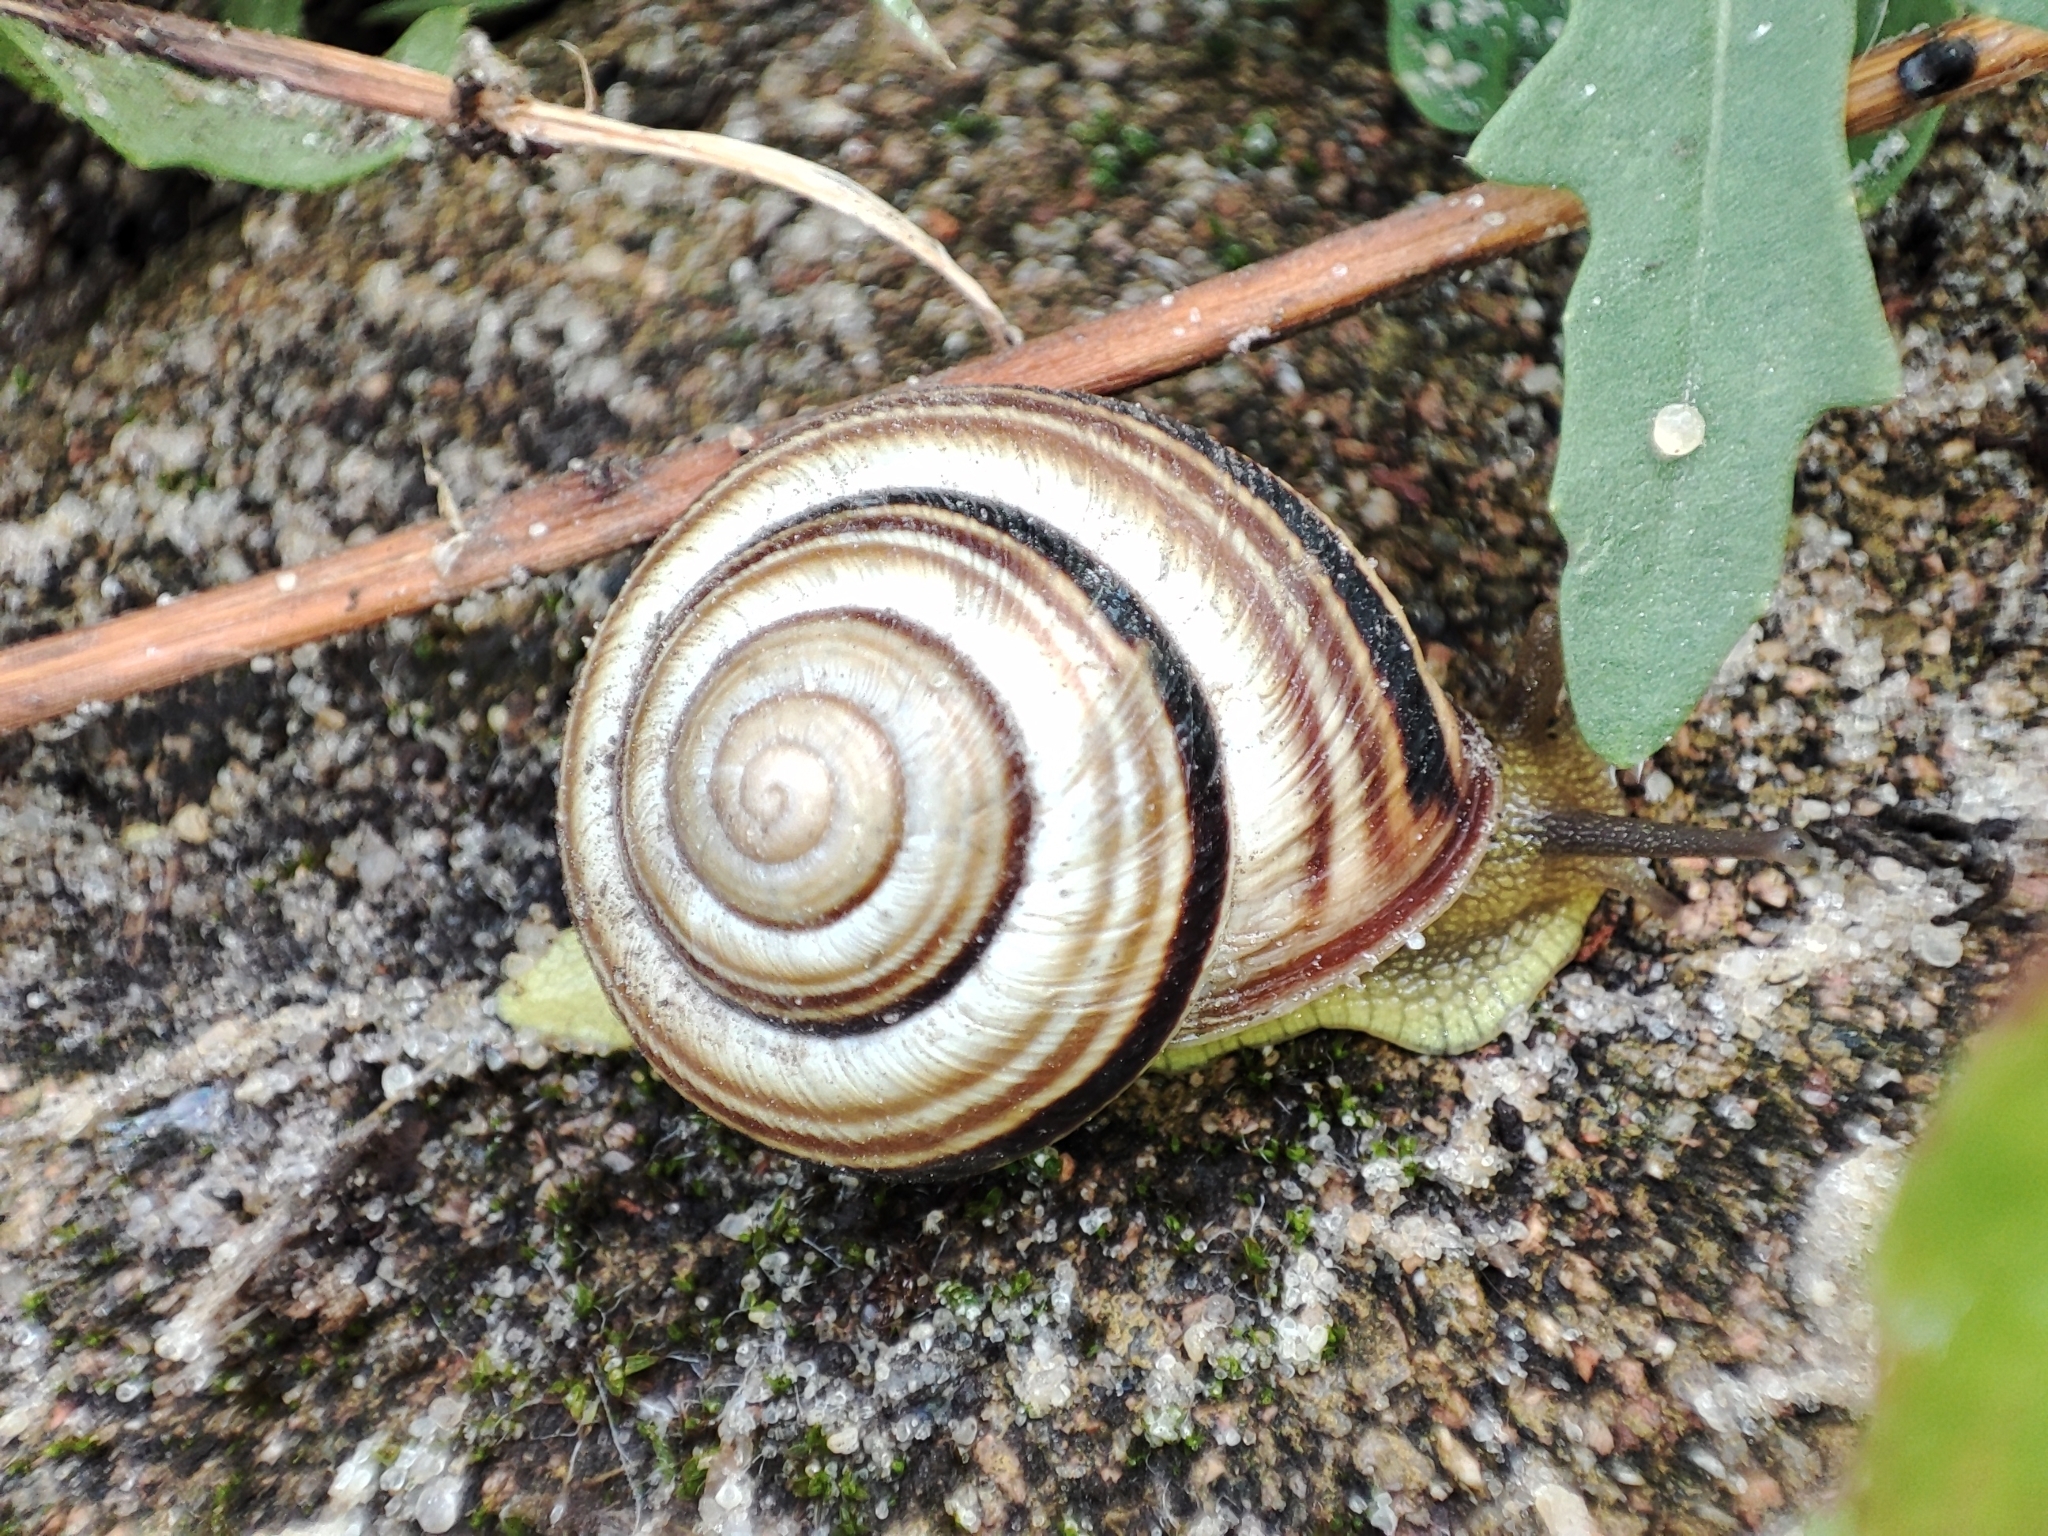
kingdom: Animalia
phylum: Mollusca
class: Gastropoda
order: Stylommatophora
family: Helicidae
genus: Caucasotachea
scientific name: Caucasotachea vindobonensis
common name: European helicid land snail
